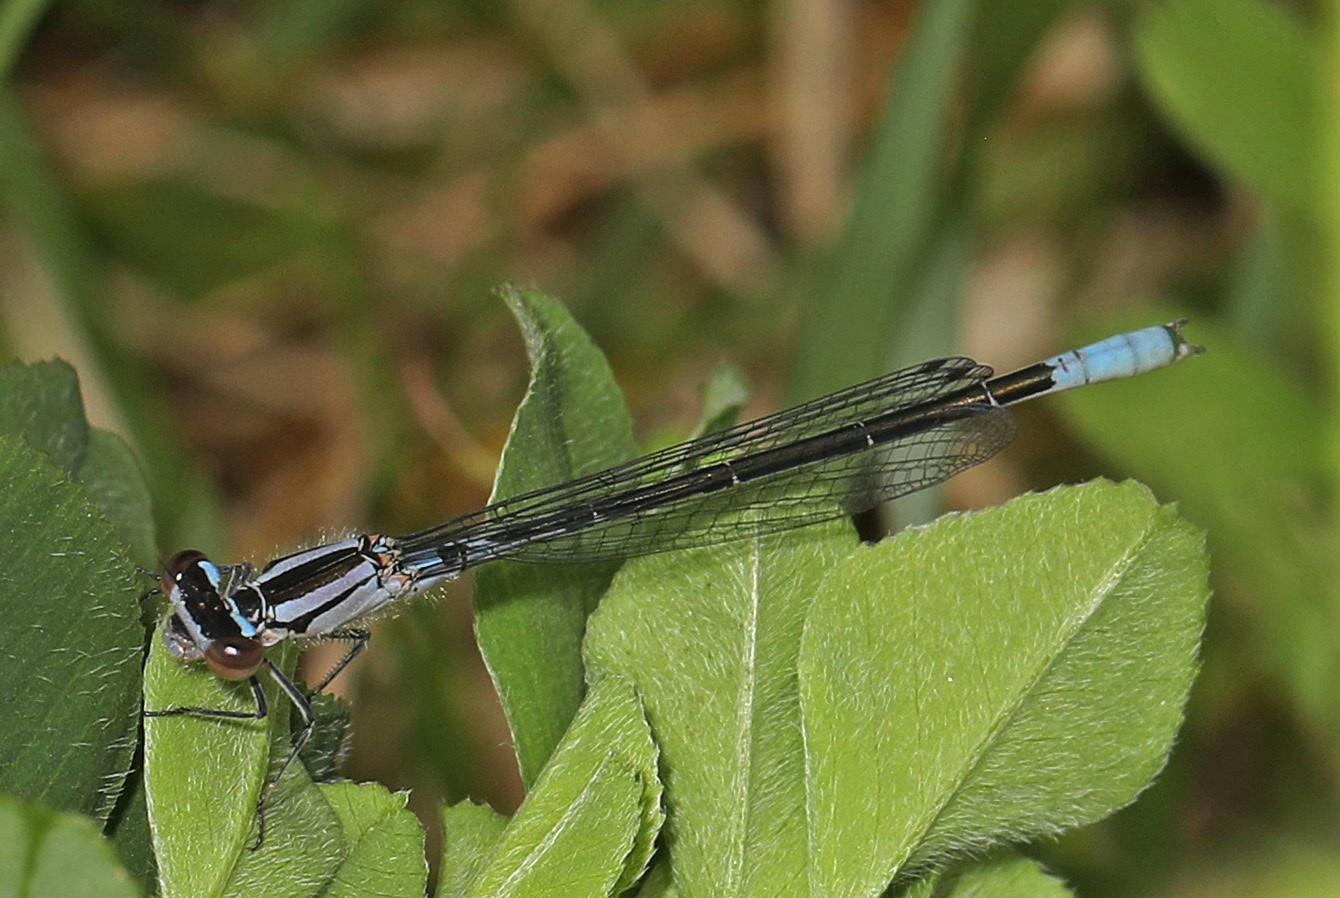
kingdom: Animalia
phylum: Arthropoda
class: Insecta
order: Odonata
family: Coenagrionidae
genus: Enallagma
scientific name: Enallagma aspersum
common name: Azure bluet
